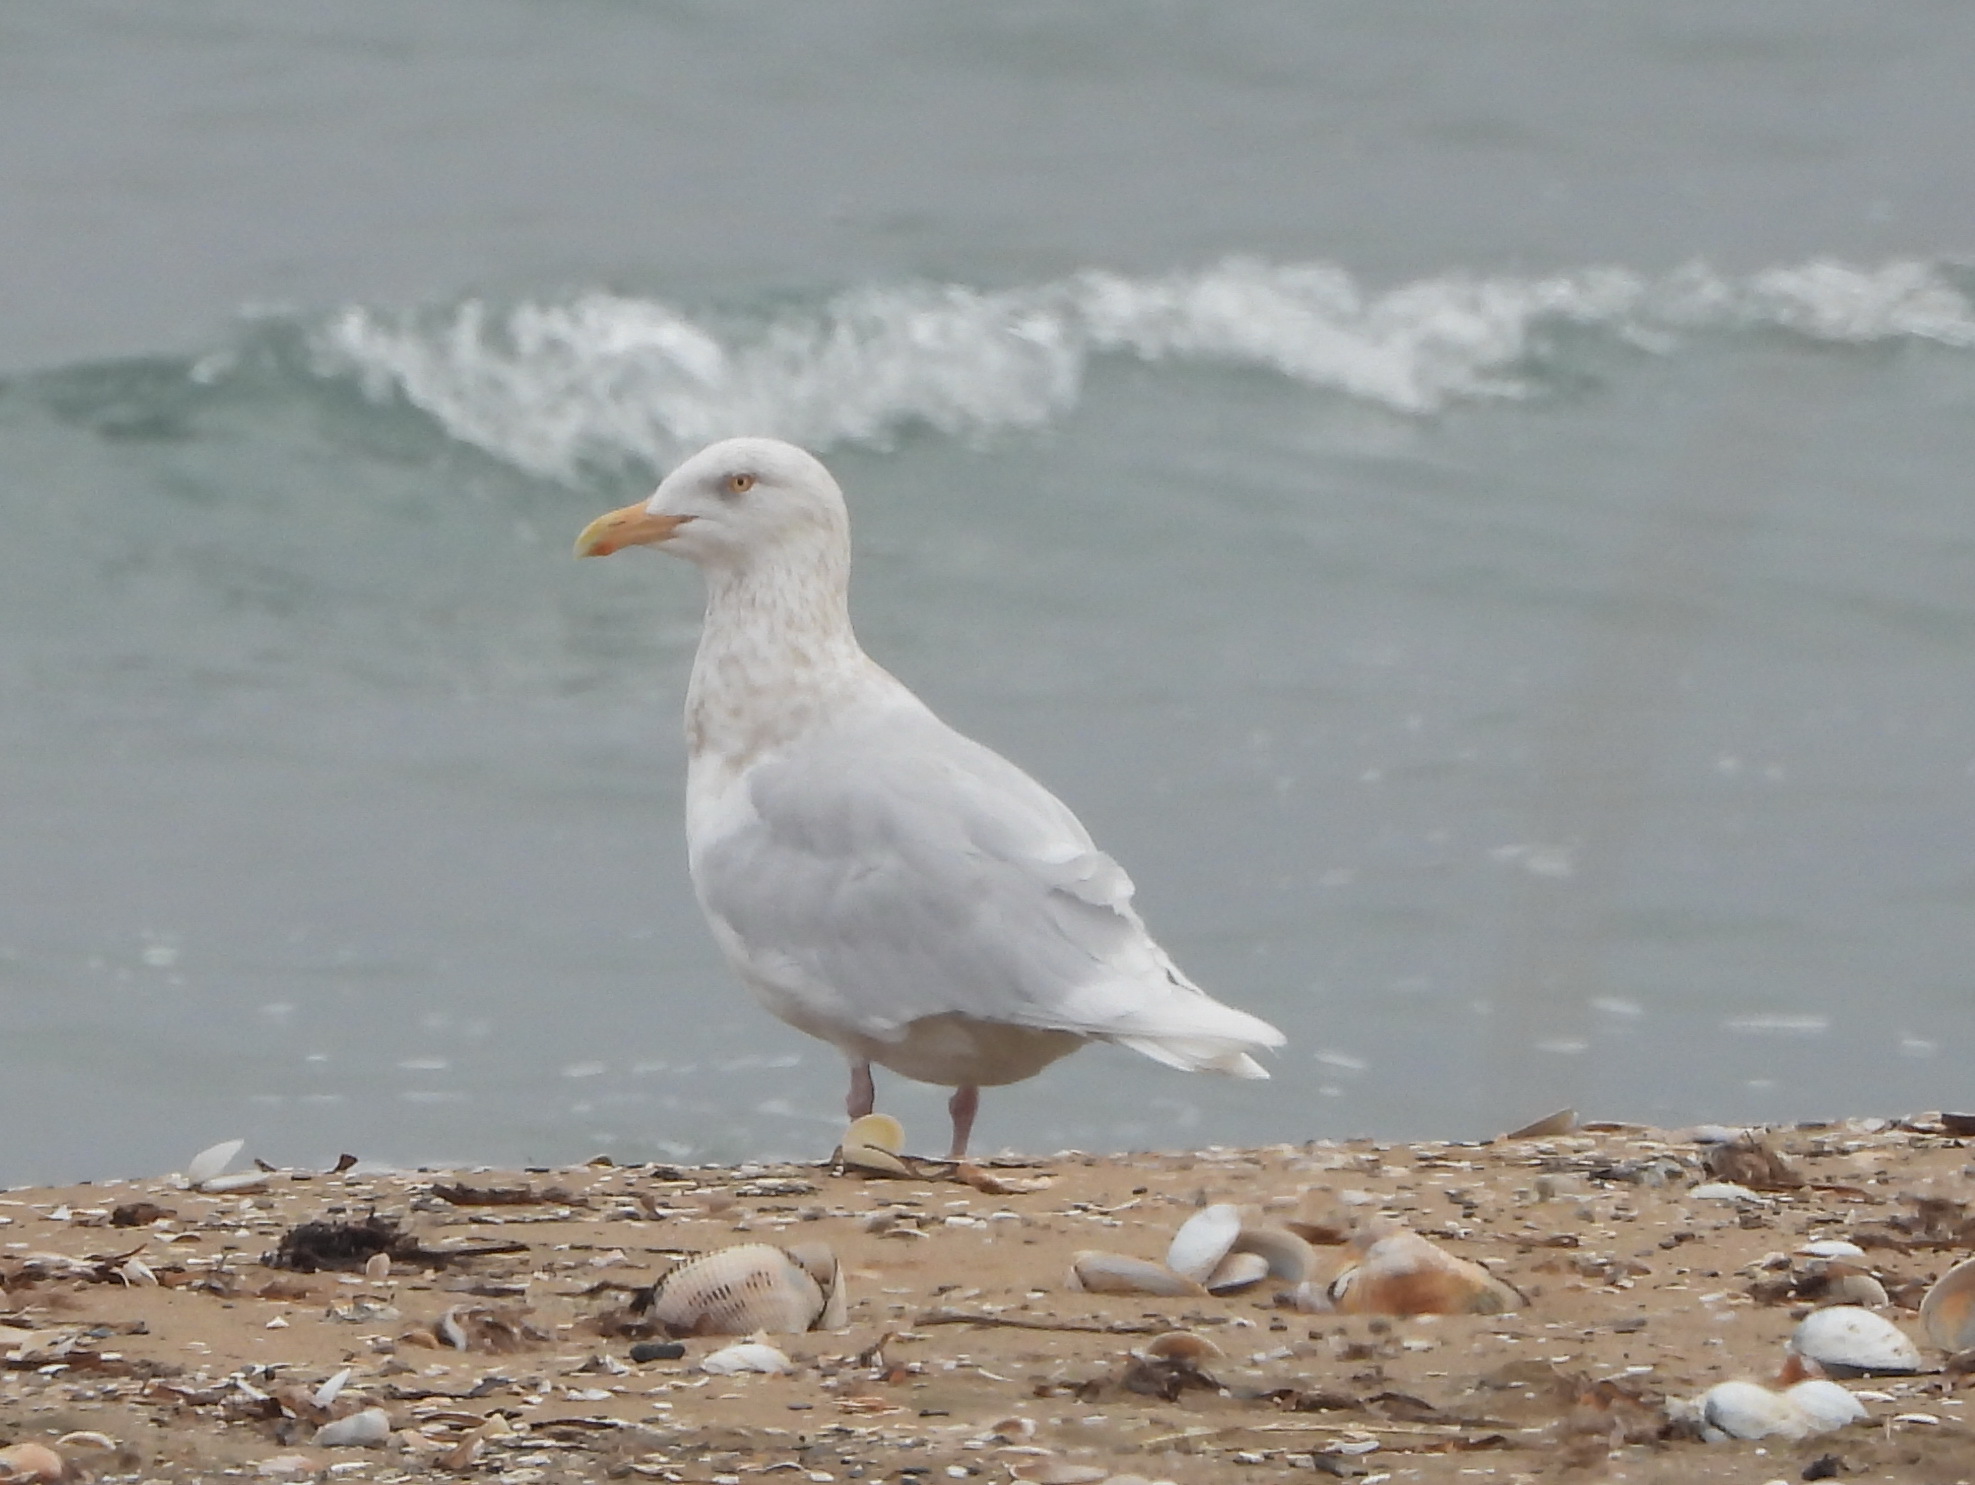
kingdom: Animalia
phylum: Chordata
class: Aves
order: Charadriiformes
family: Laridae
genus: Larus
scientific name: Larus hyperboreus
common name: Glaucous gull
